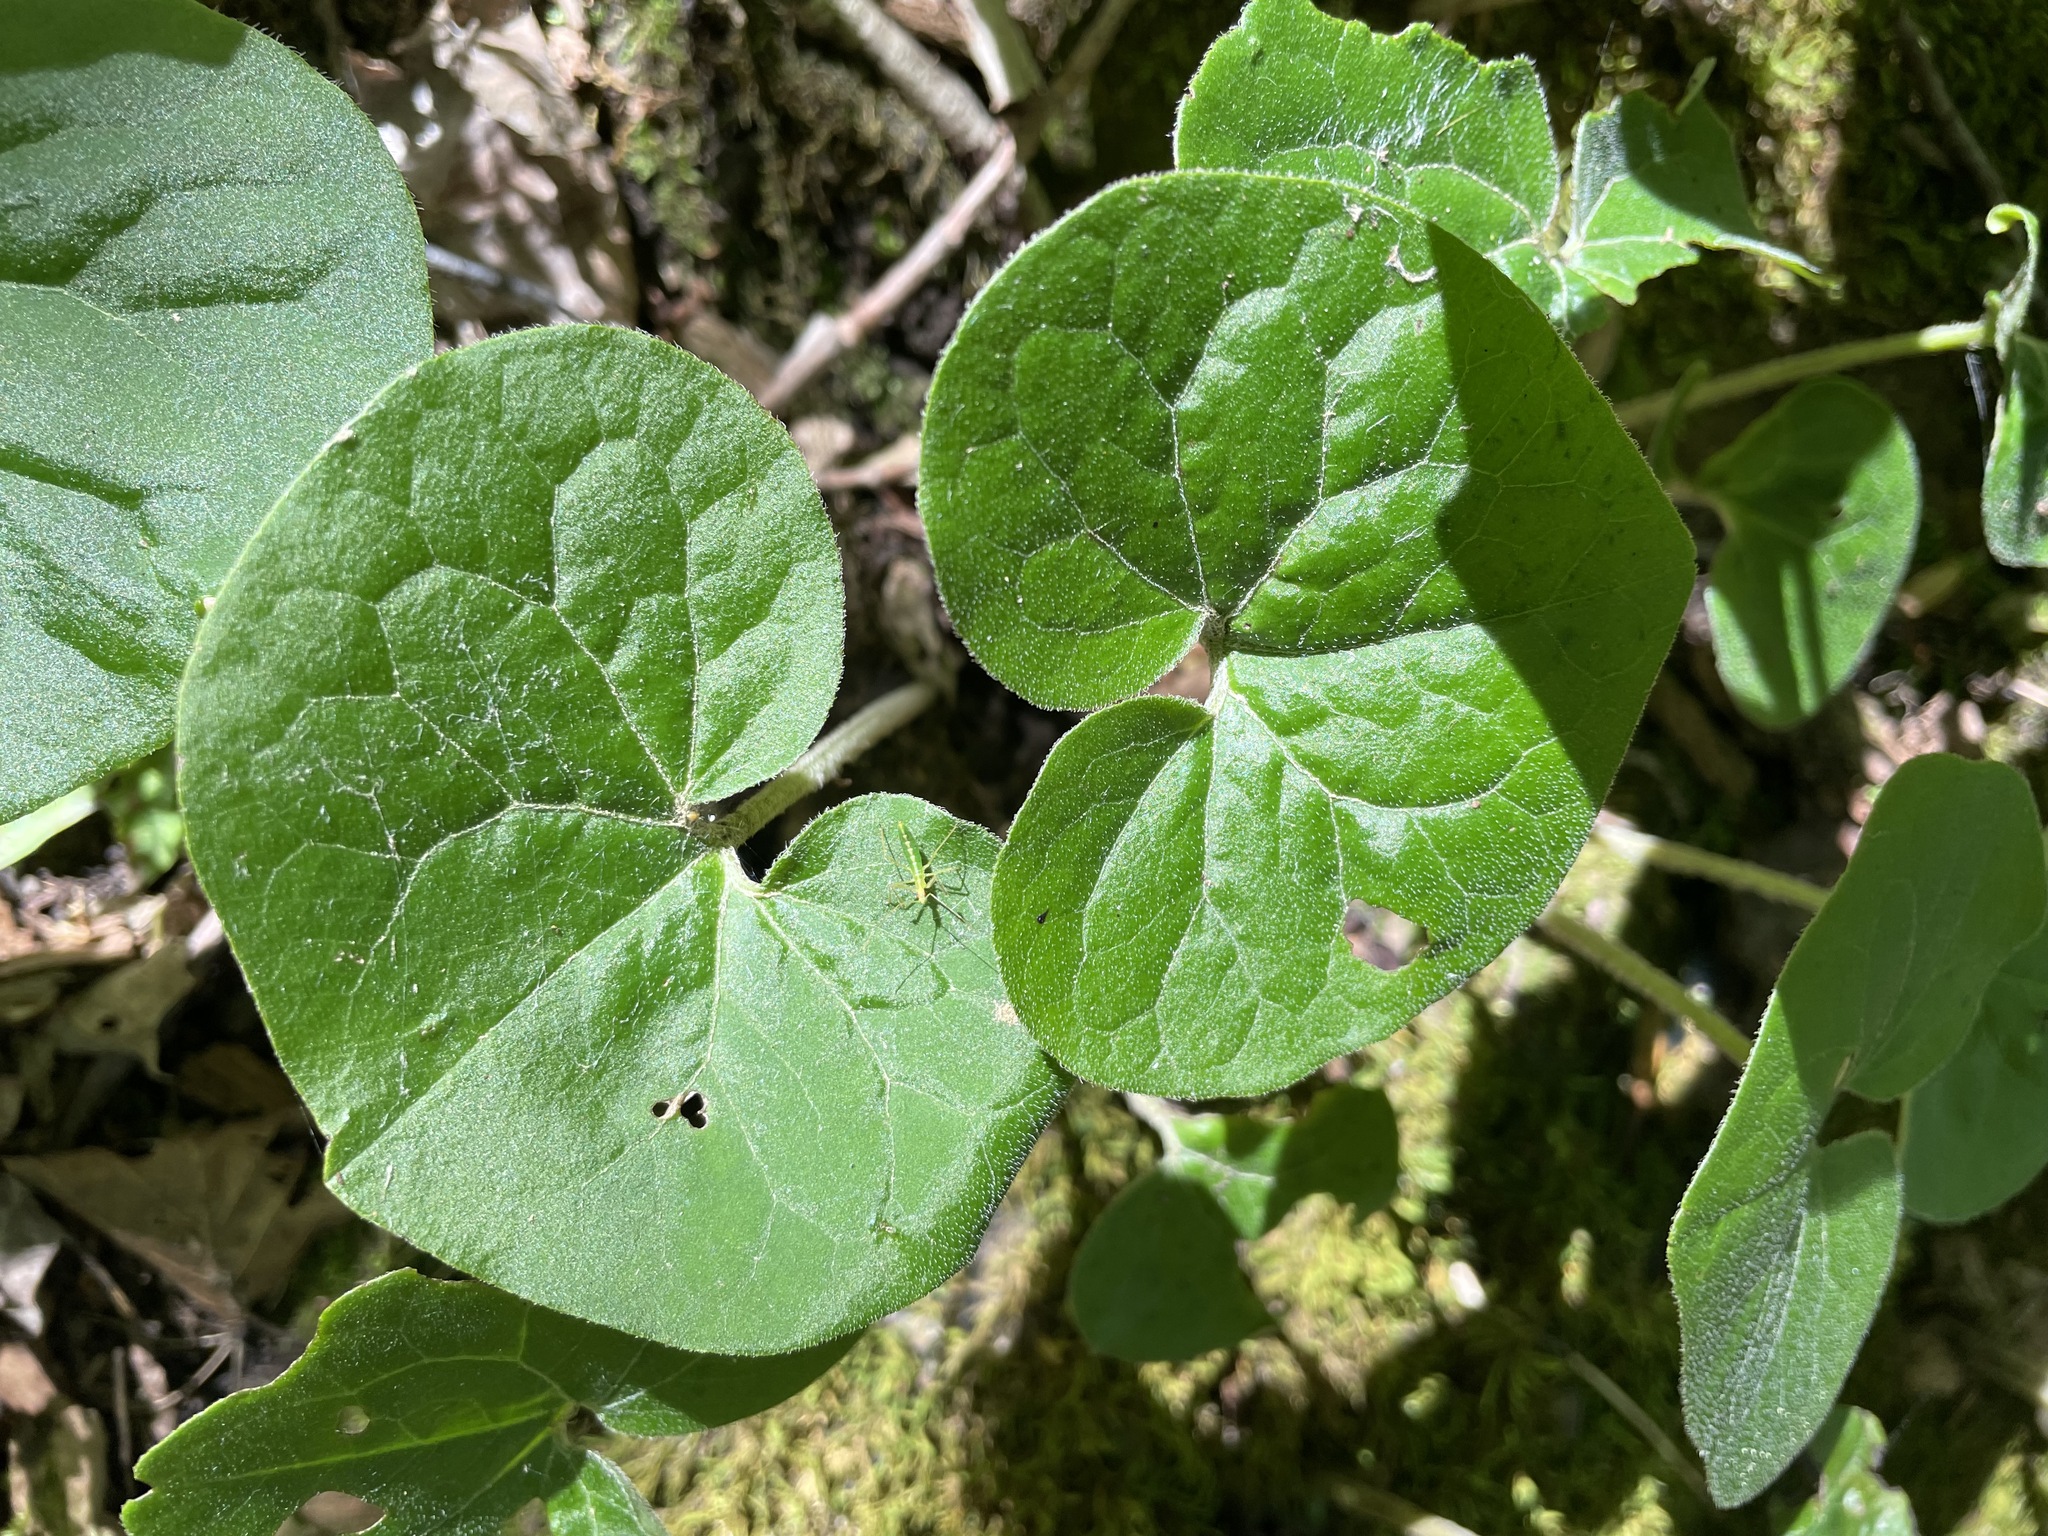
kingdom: Plantae
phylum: Tracheophyta
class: Magnoliopsida
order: Piperales
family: Aristolochiaceae
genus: Asarum
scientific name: Asarum canadense
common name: Wild ginger
